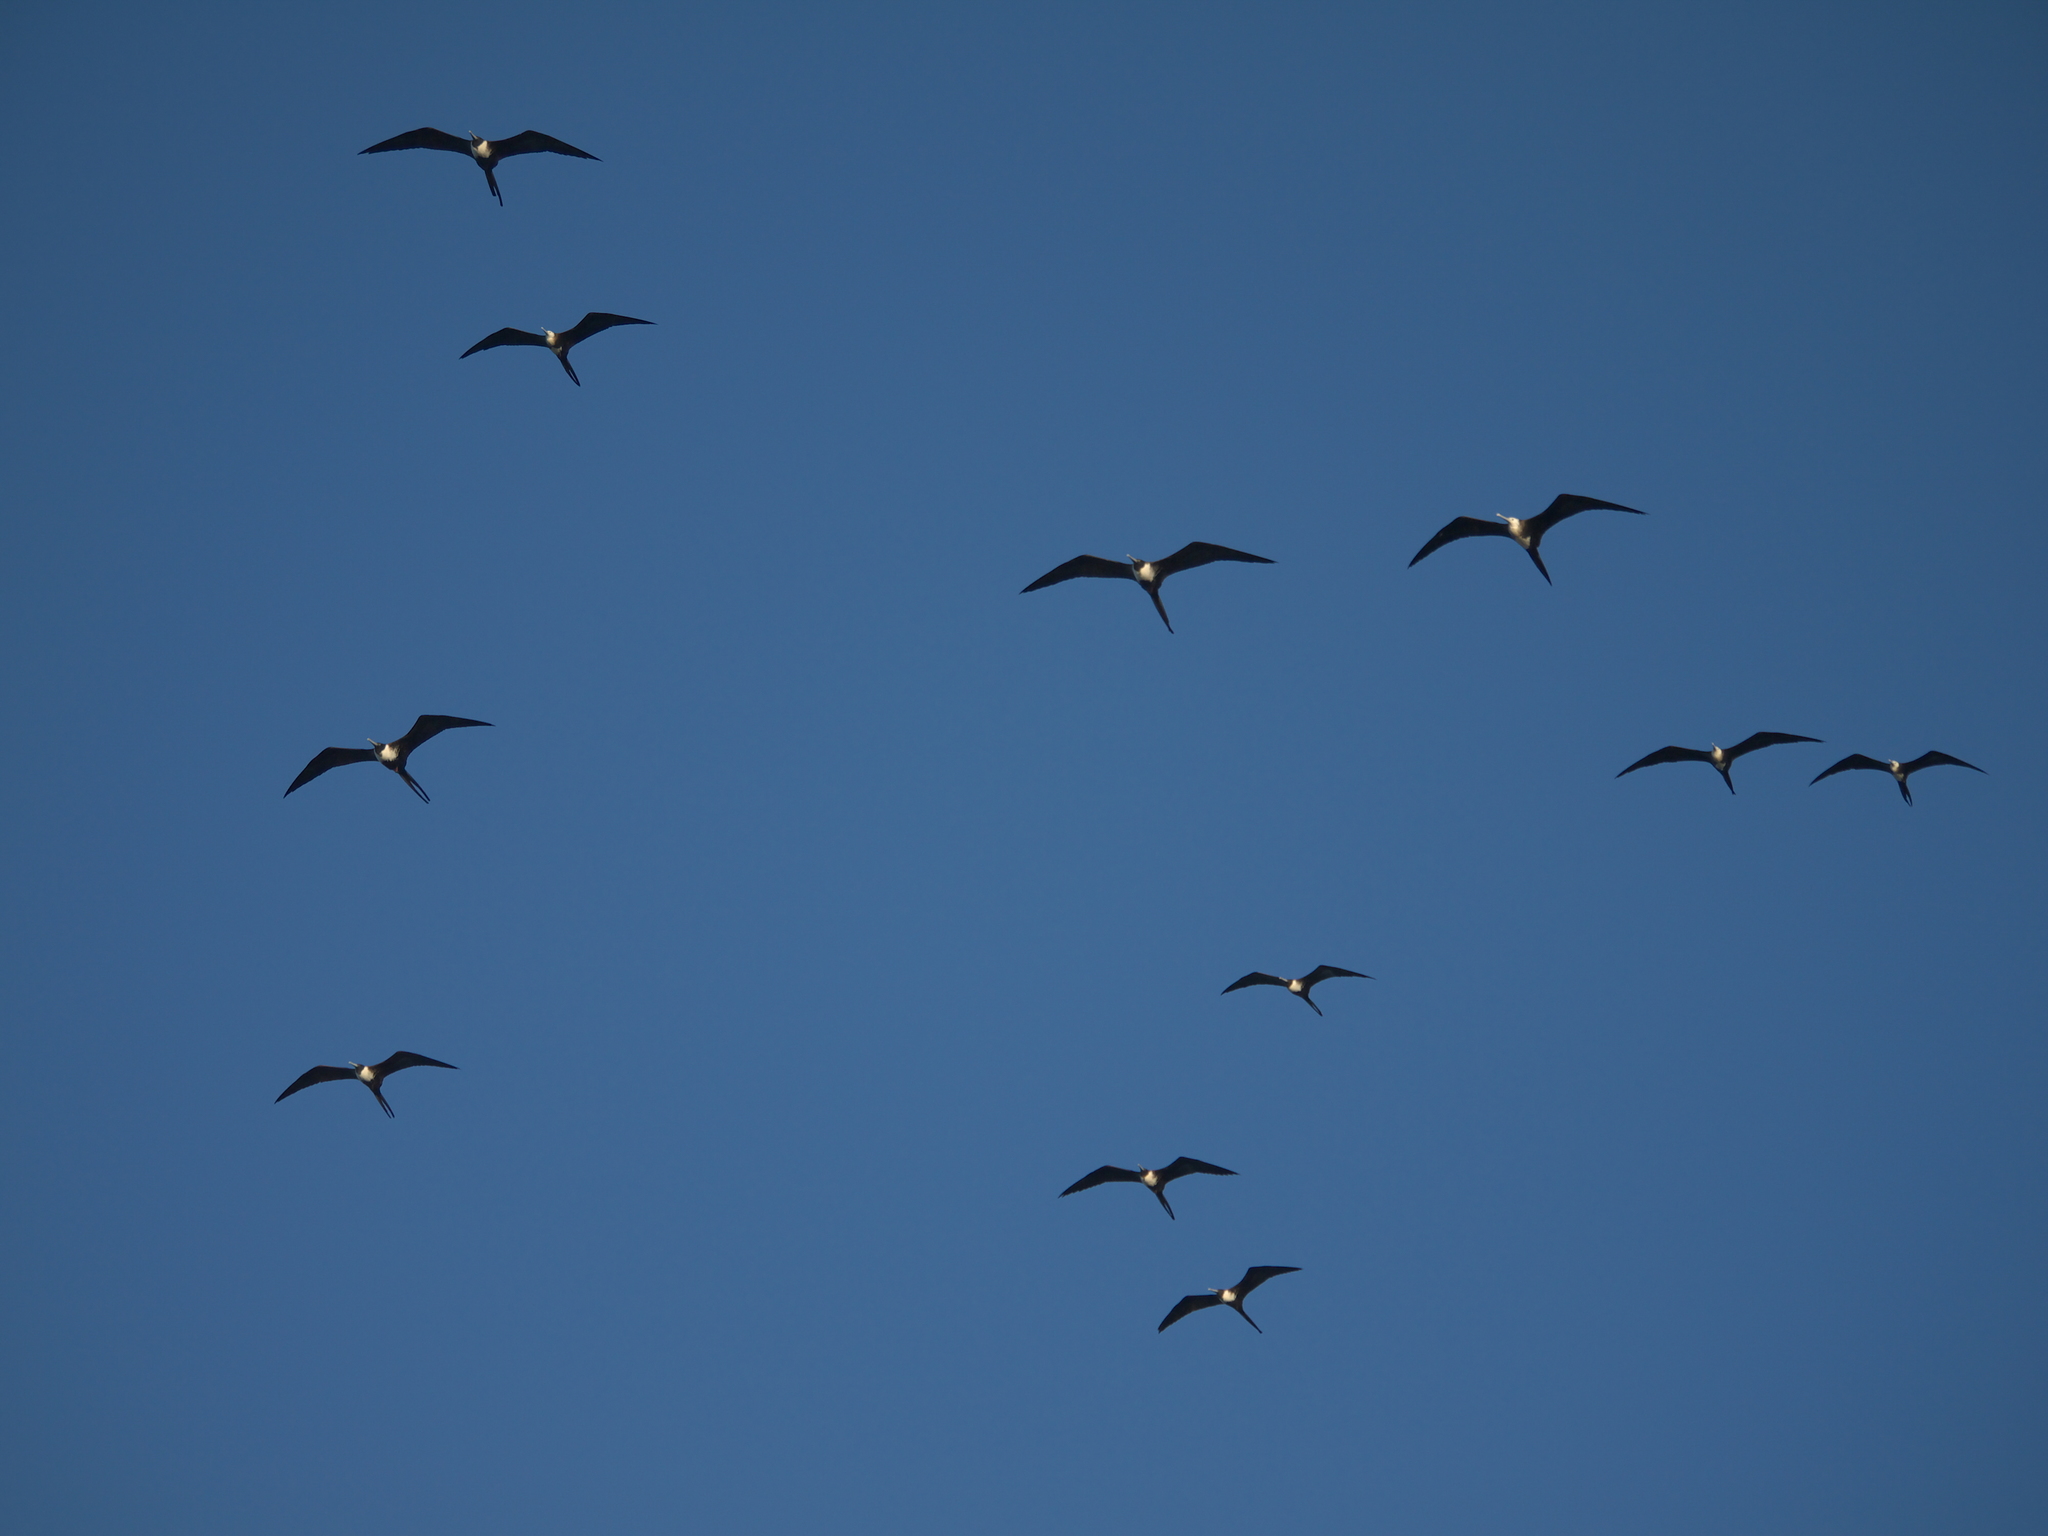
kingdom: Animalia
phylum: Chordata
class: Aves
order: Suliformes
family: Fregatidae
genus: Fregata
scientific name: Fregata magnificens
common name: Magnificent frigatebird
